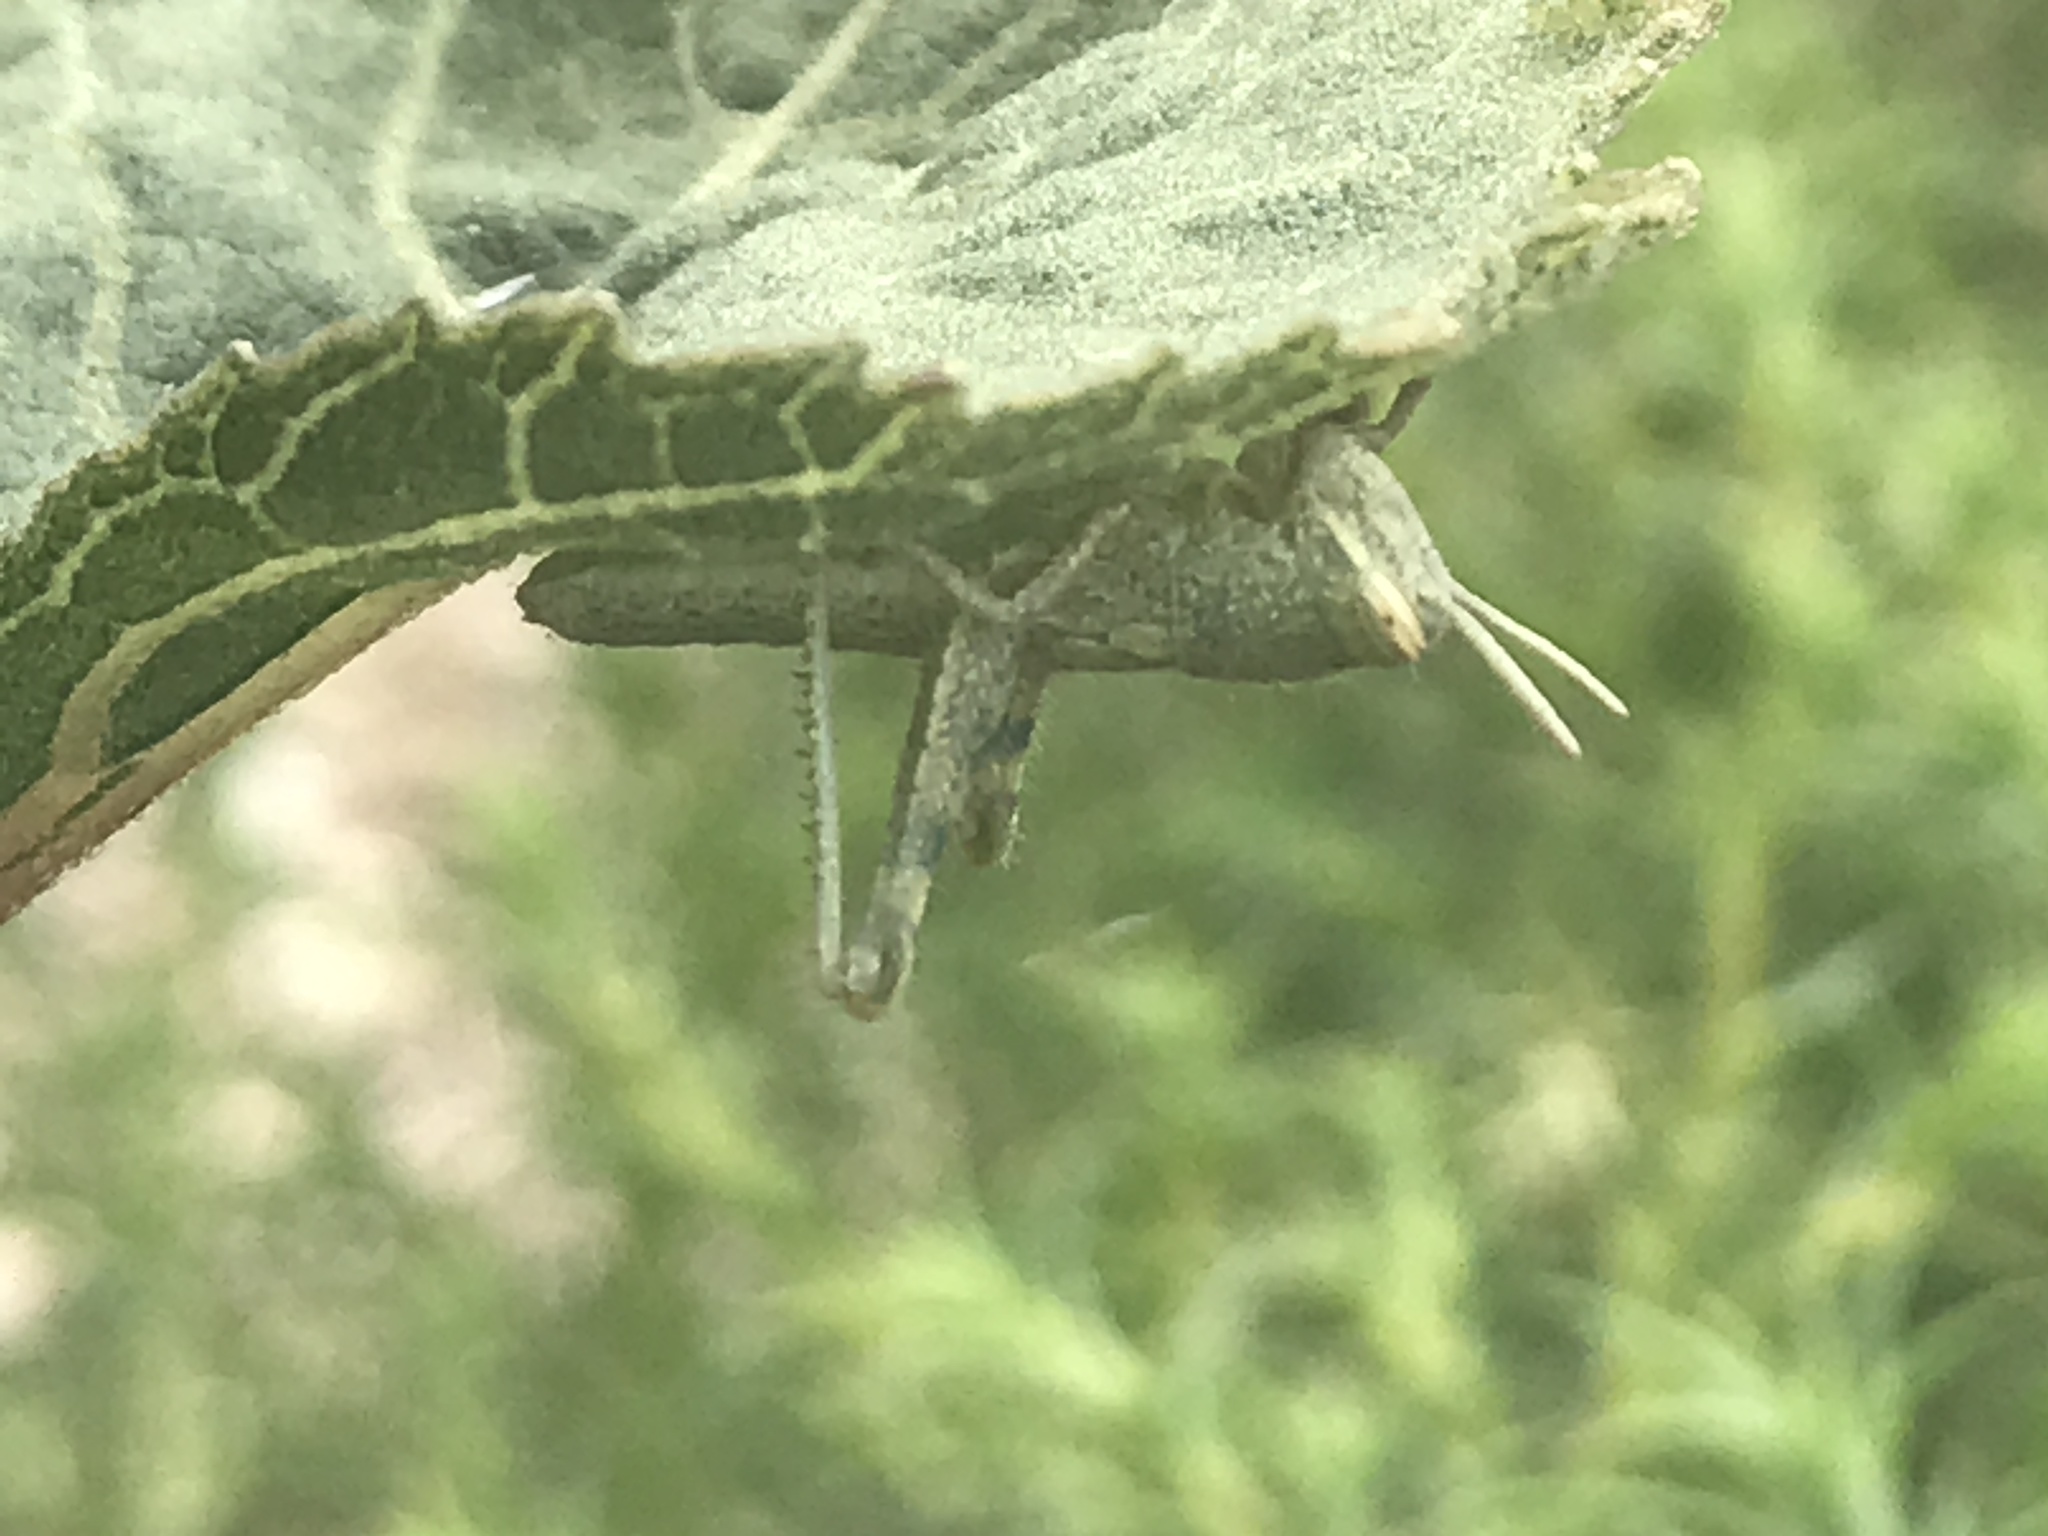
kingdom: Animalia
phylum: Arthropoda
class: Insecta
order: Orthoptera
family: Acrididae
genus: Schistocerca
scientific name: Schistocerca nitens
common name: Vagrant grasshopper
